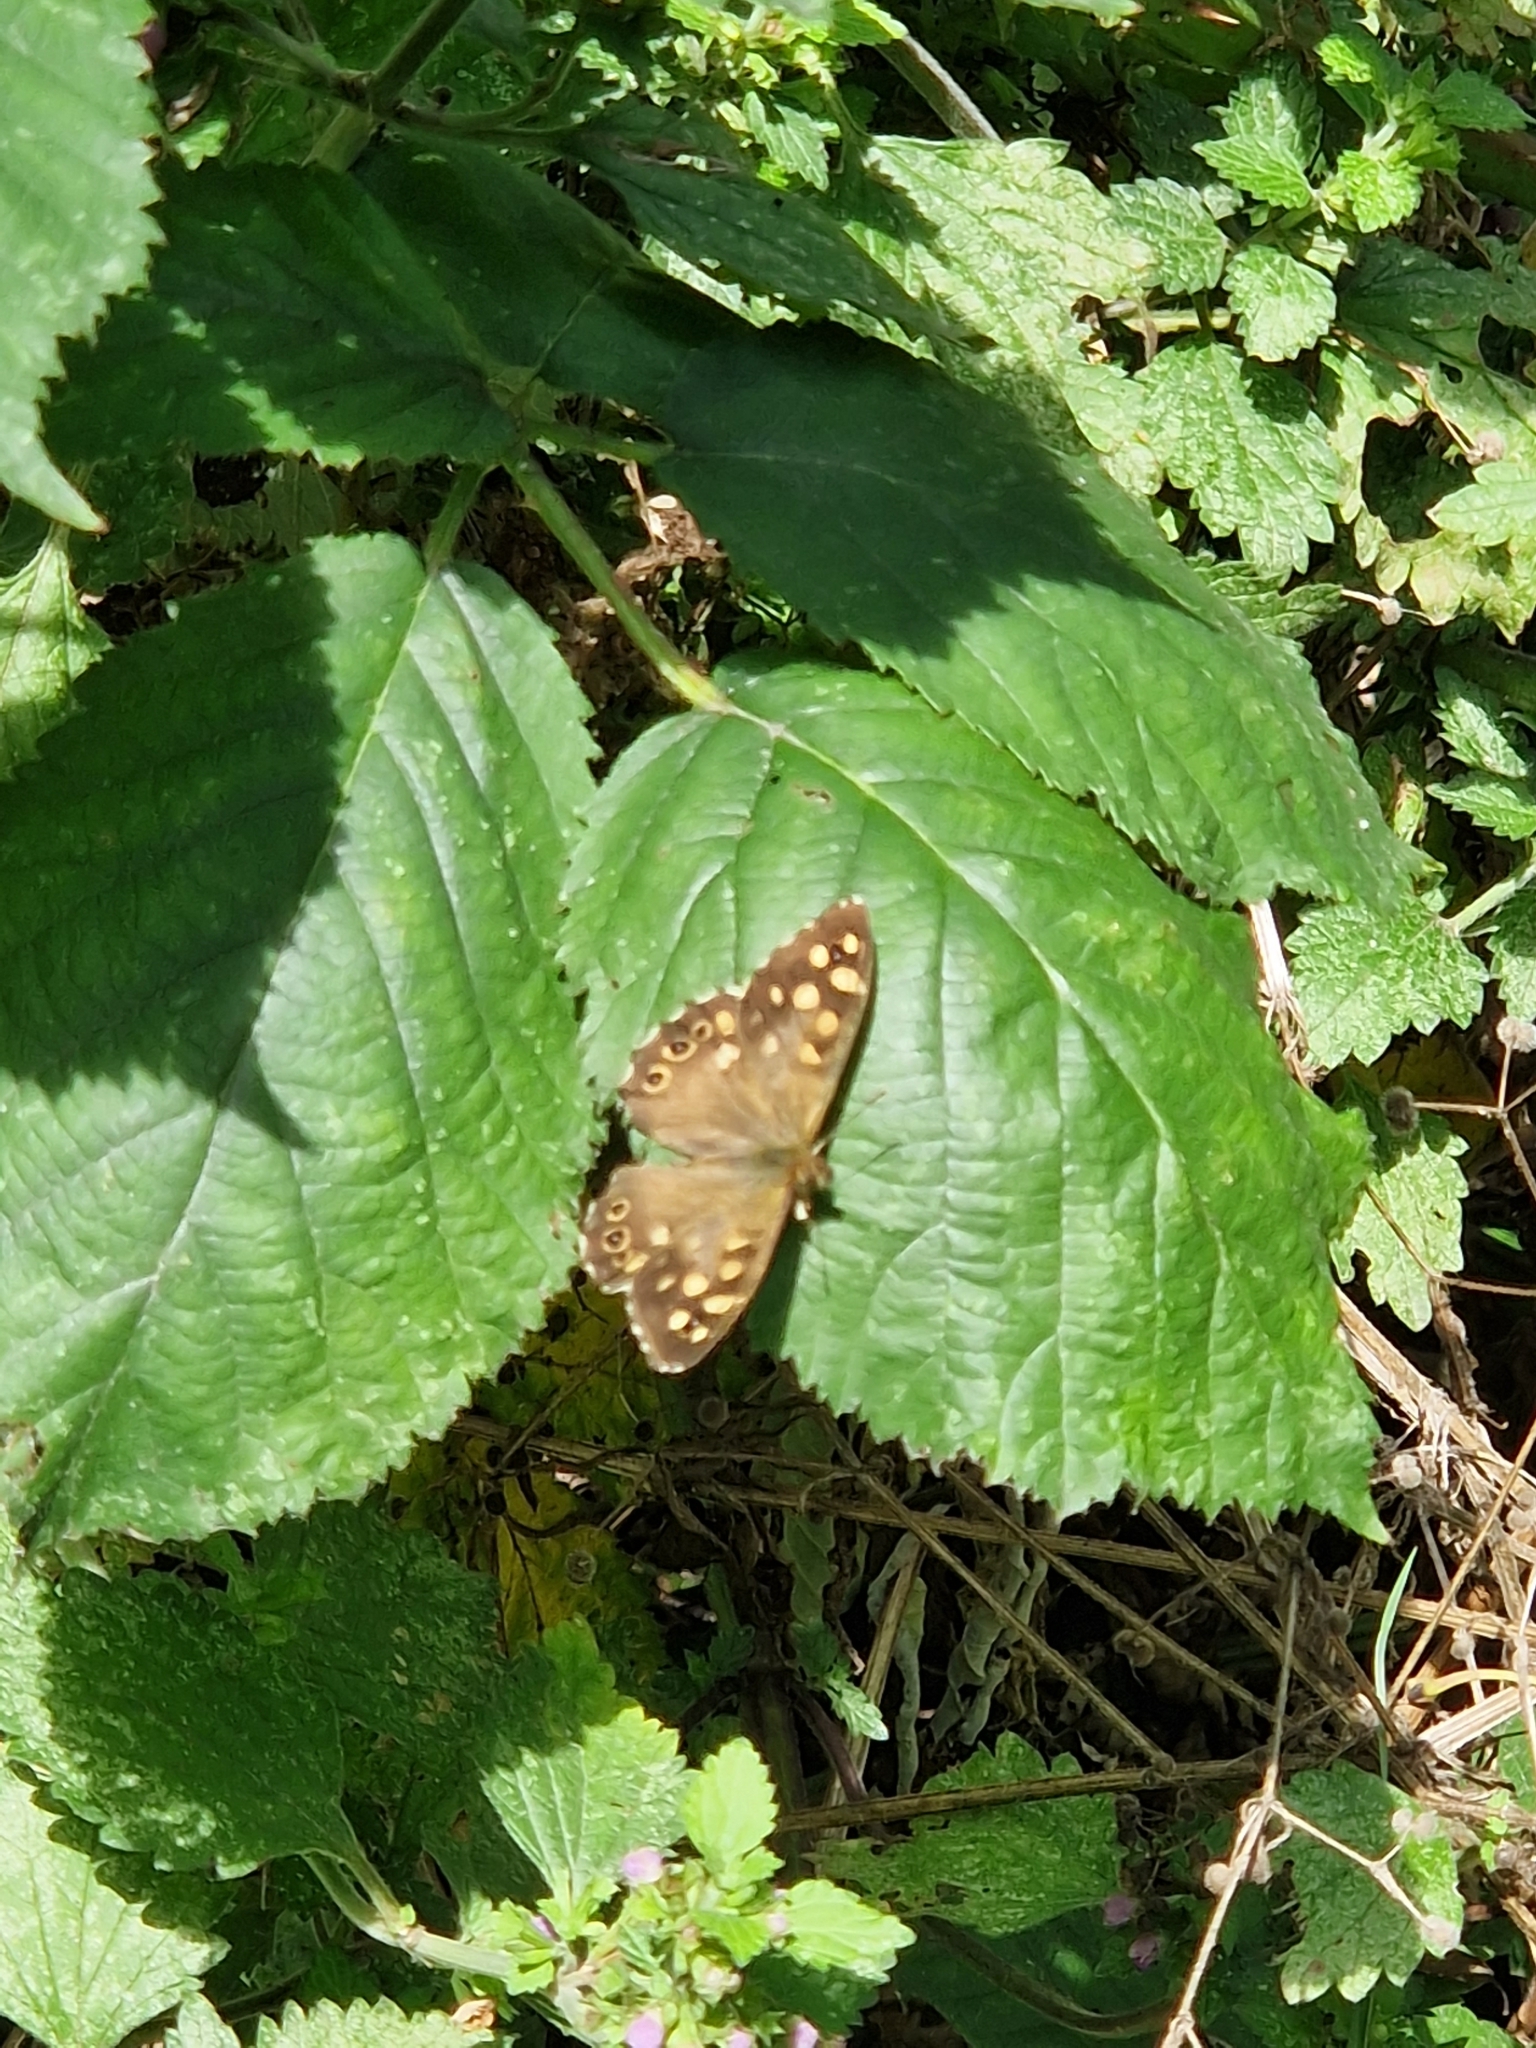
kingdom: Animalia
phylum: Arthropoda
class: Insecta
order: Lepidoptera
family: Nymphalidae
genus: Pararge
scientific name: Pararge aegeria
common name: Speckled wood
